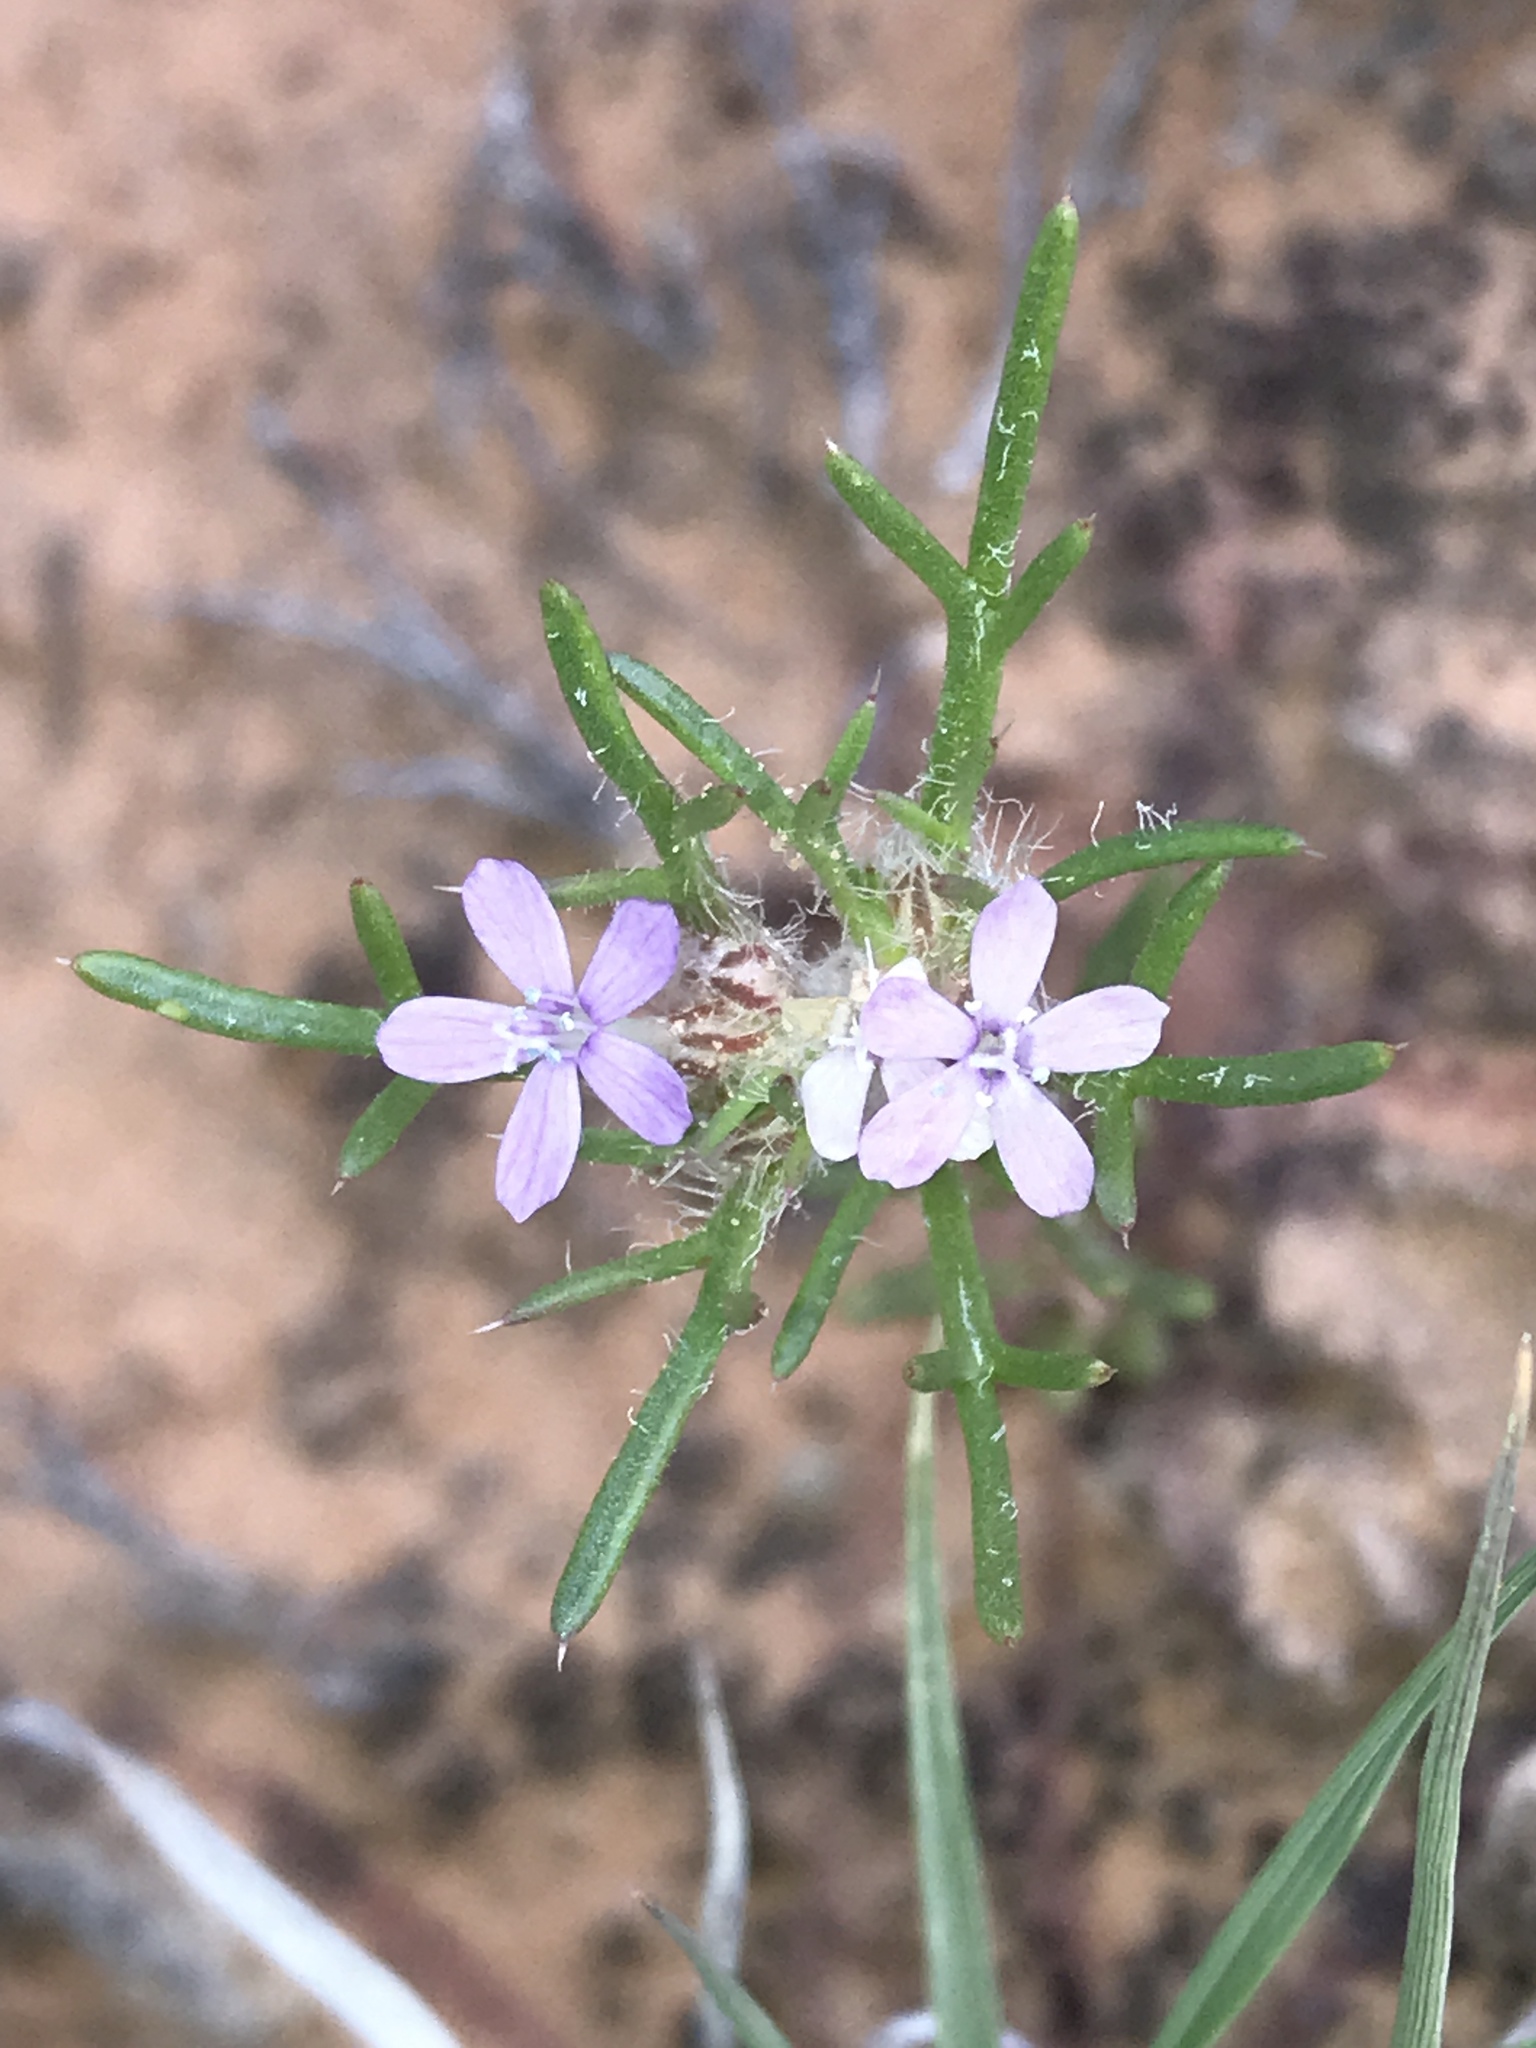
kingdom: Plantae
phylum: Tracheophyta
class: Magnoliopsida
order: Ericales
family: Polemoniaceae
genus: Ipomopsis
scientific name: Ipomopsis pumila
